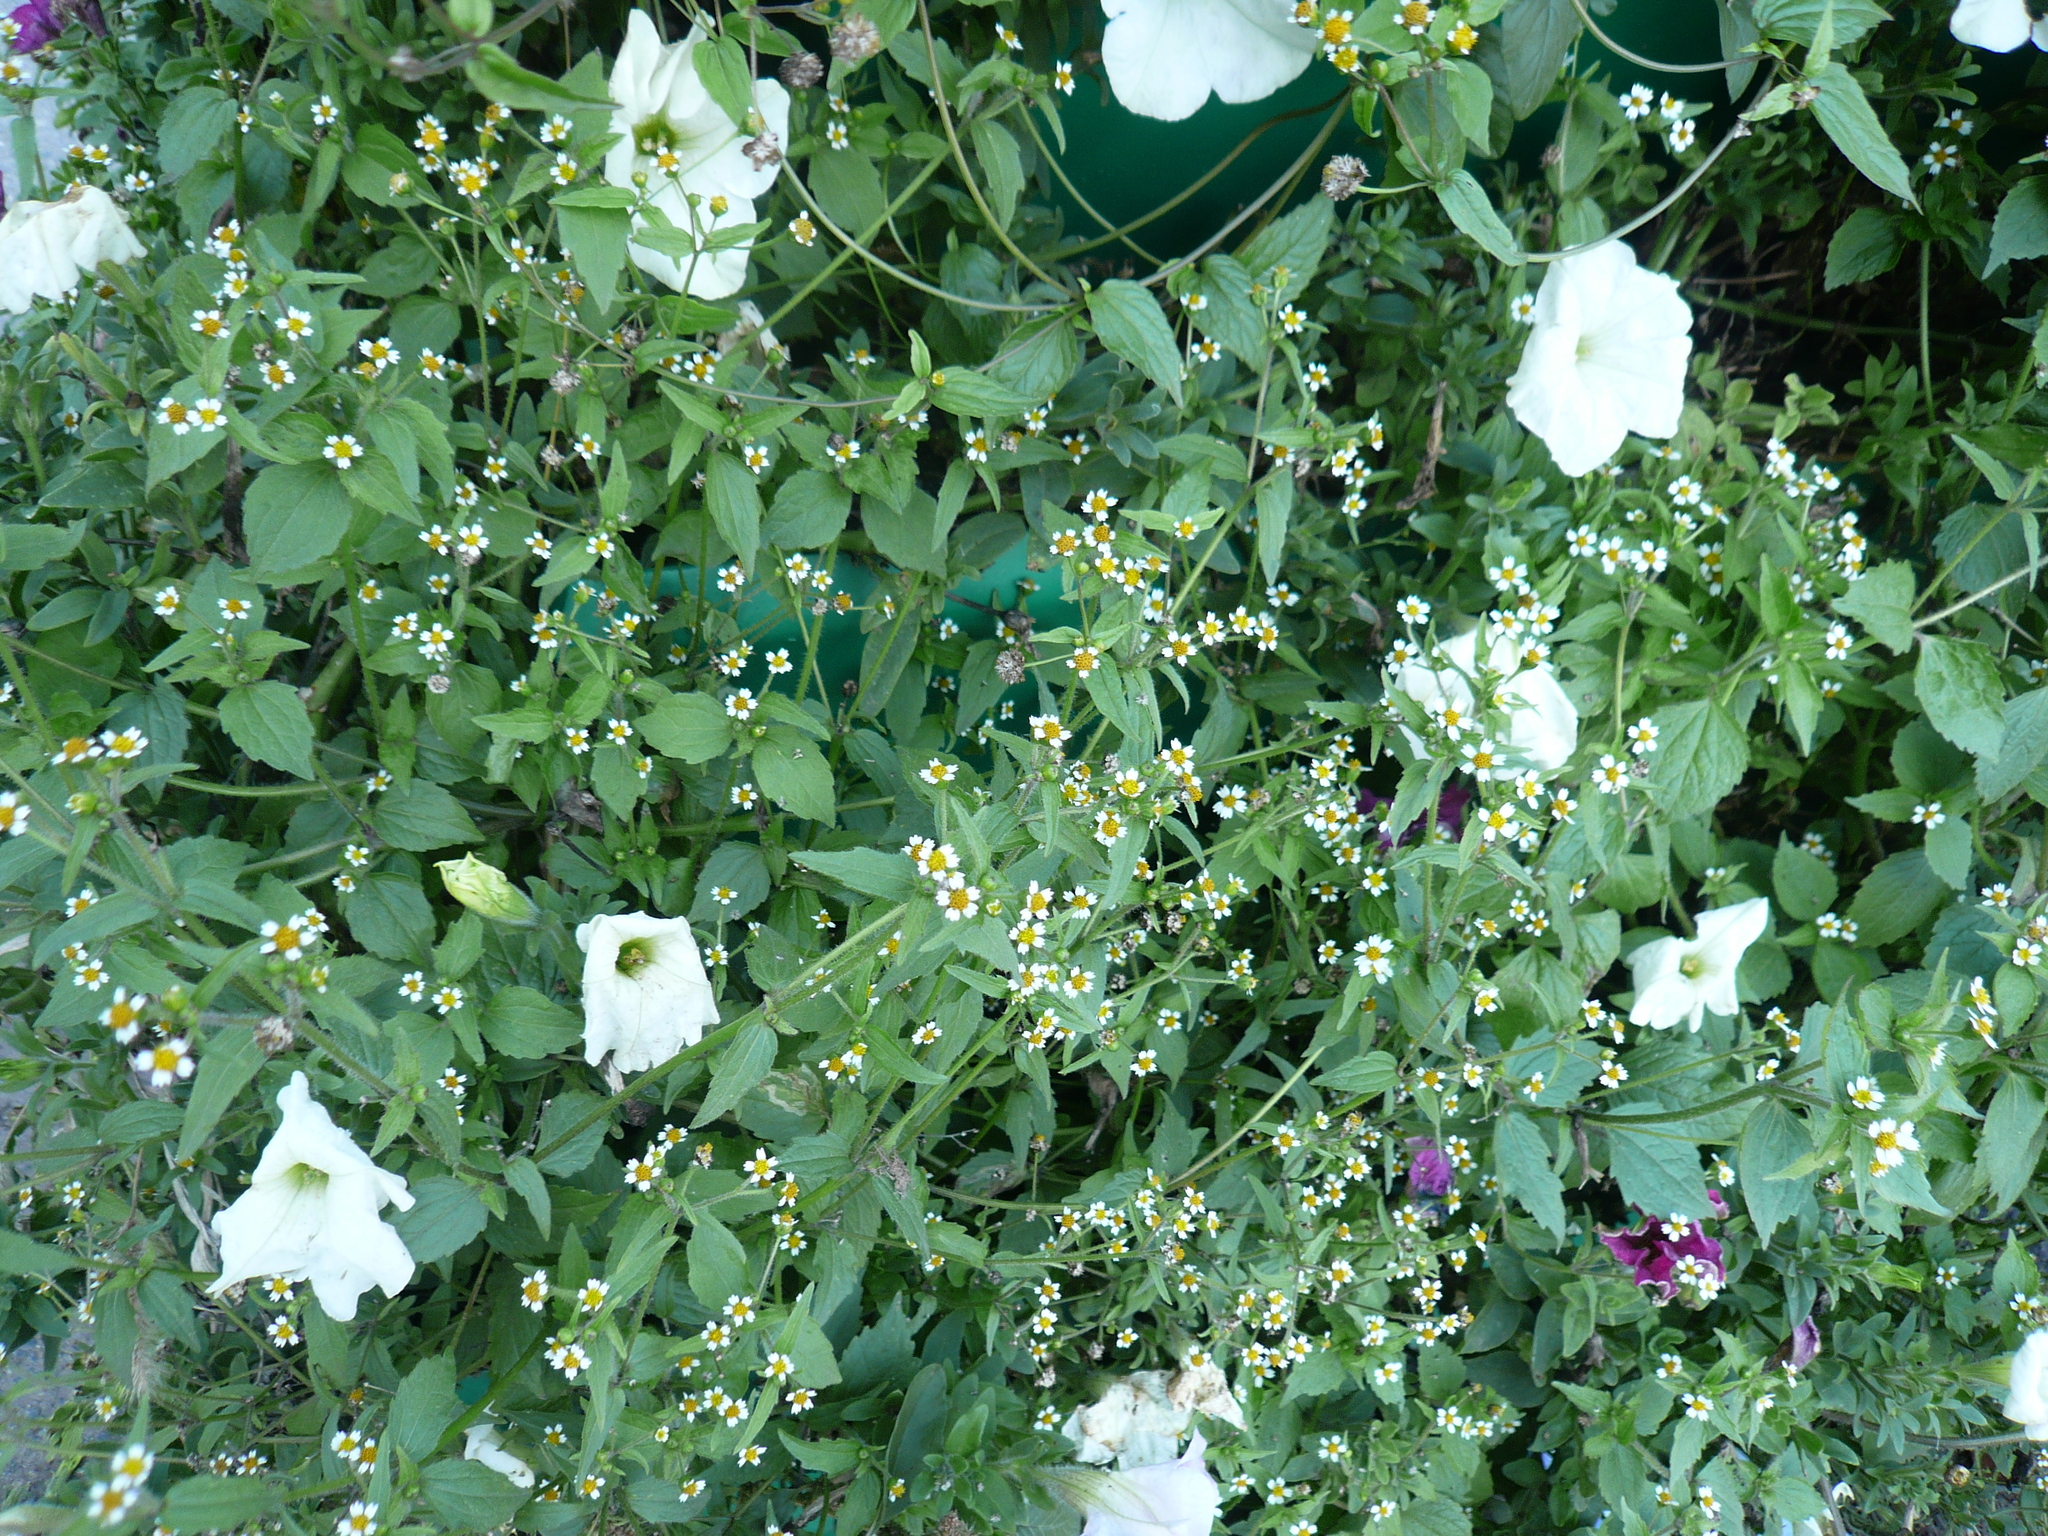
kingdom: Plantae
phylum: Tracheophyta
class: Magnoliopsida
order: Asterales
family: Asteraceae
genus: Galinsoga
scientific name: Galinsoga quadriradiata
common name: Shaggy soldier
